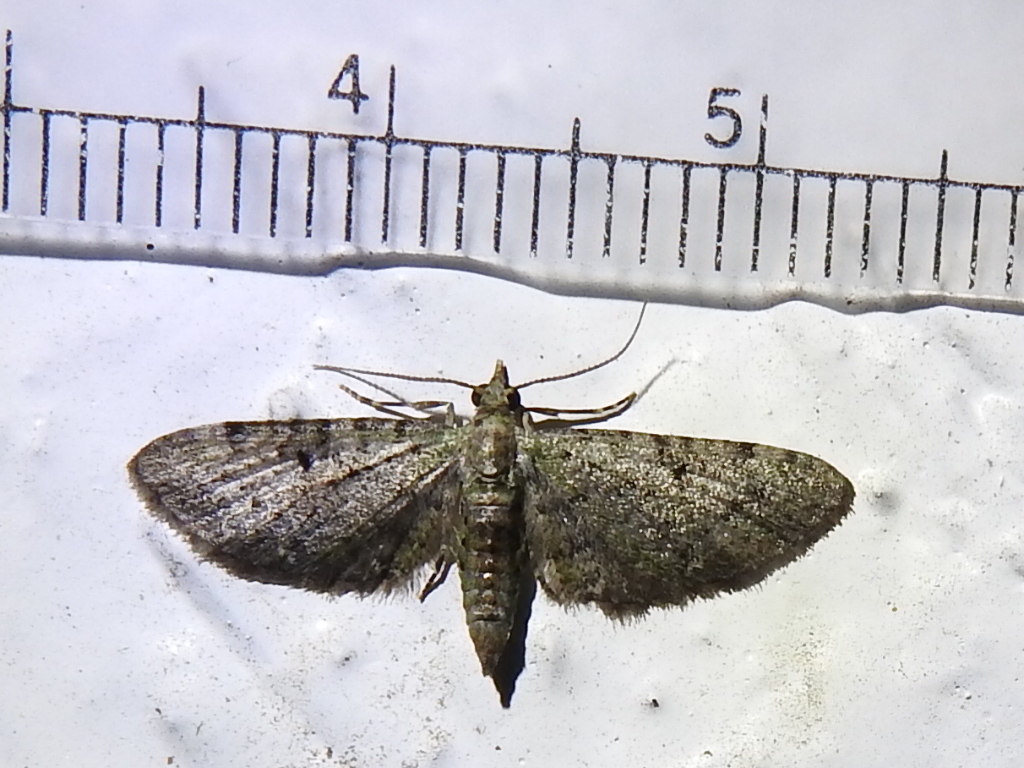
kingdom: Animalia
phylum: Arthropoda
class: Insecta
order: Lepidoptera
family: Geometridae
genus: Eupithecia
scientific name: Eupithecia miserulata
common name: Common eupithecia
